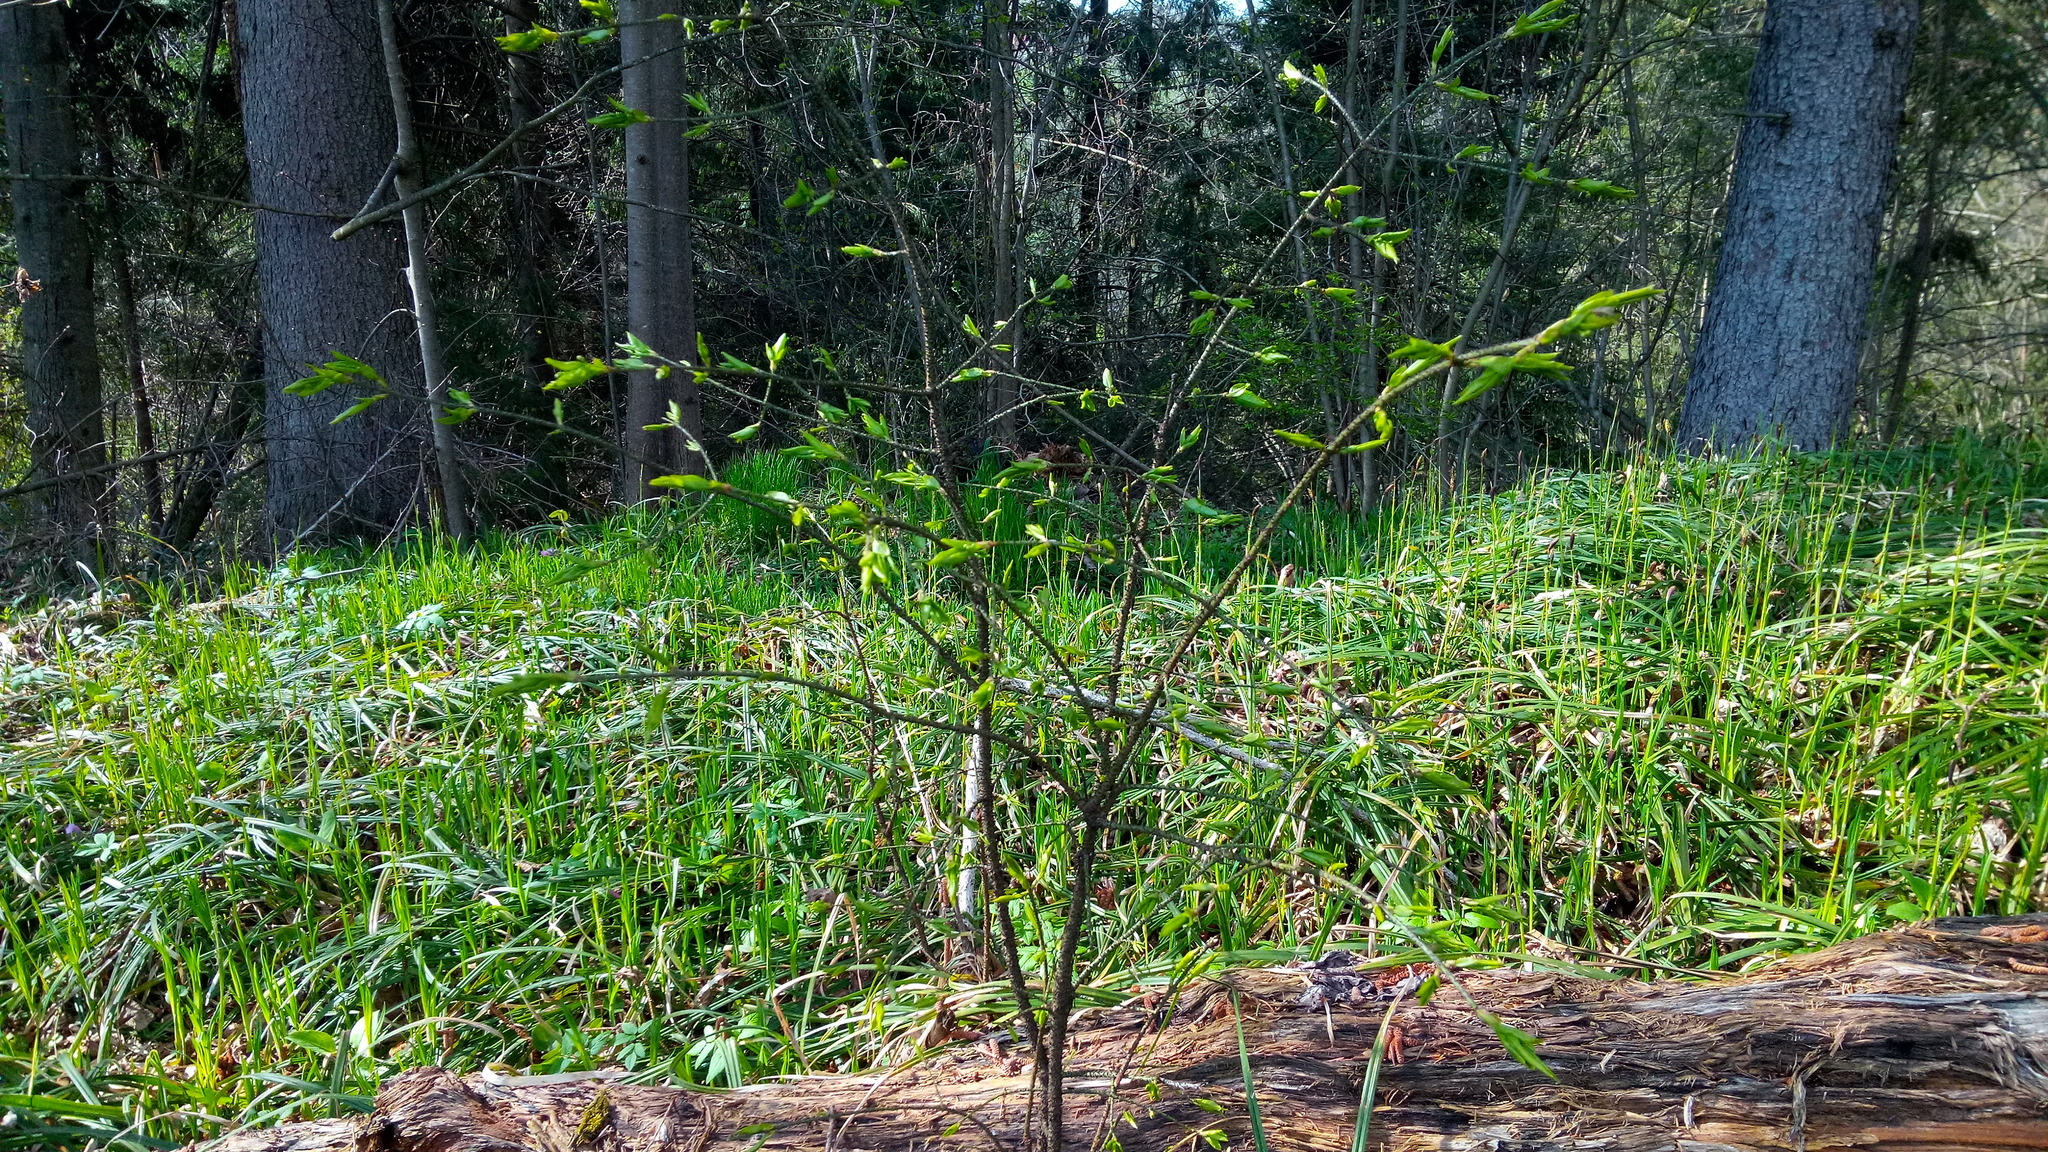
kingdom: Plantae
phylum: Tracheophyta
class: Magnoliopsida
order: Celastrales
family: Celastraceae
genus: Euonymus
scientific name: Euonymus verrucosus
